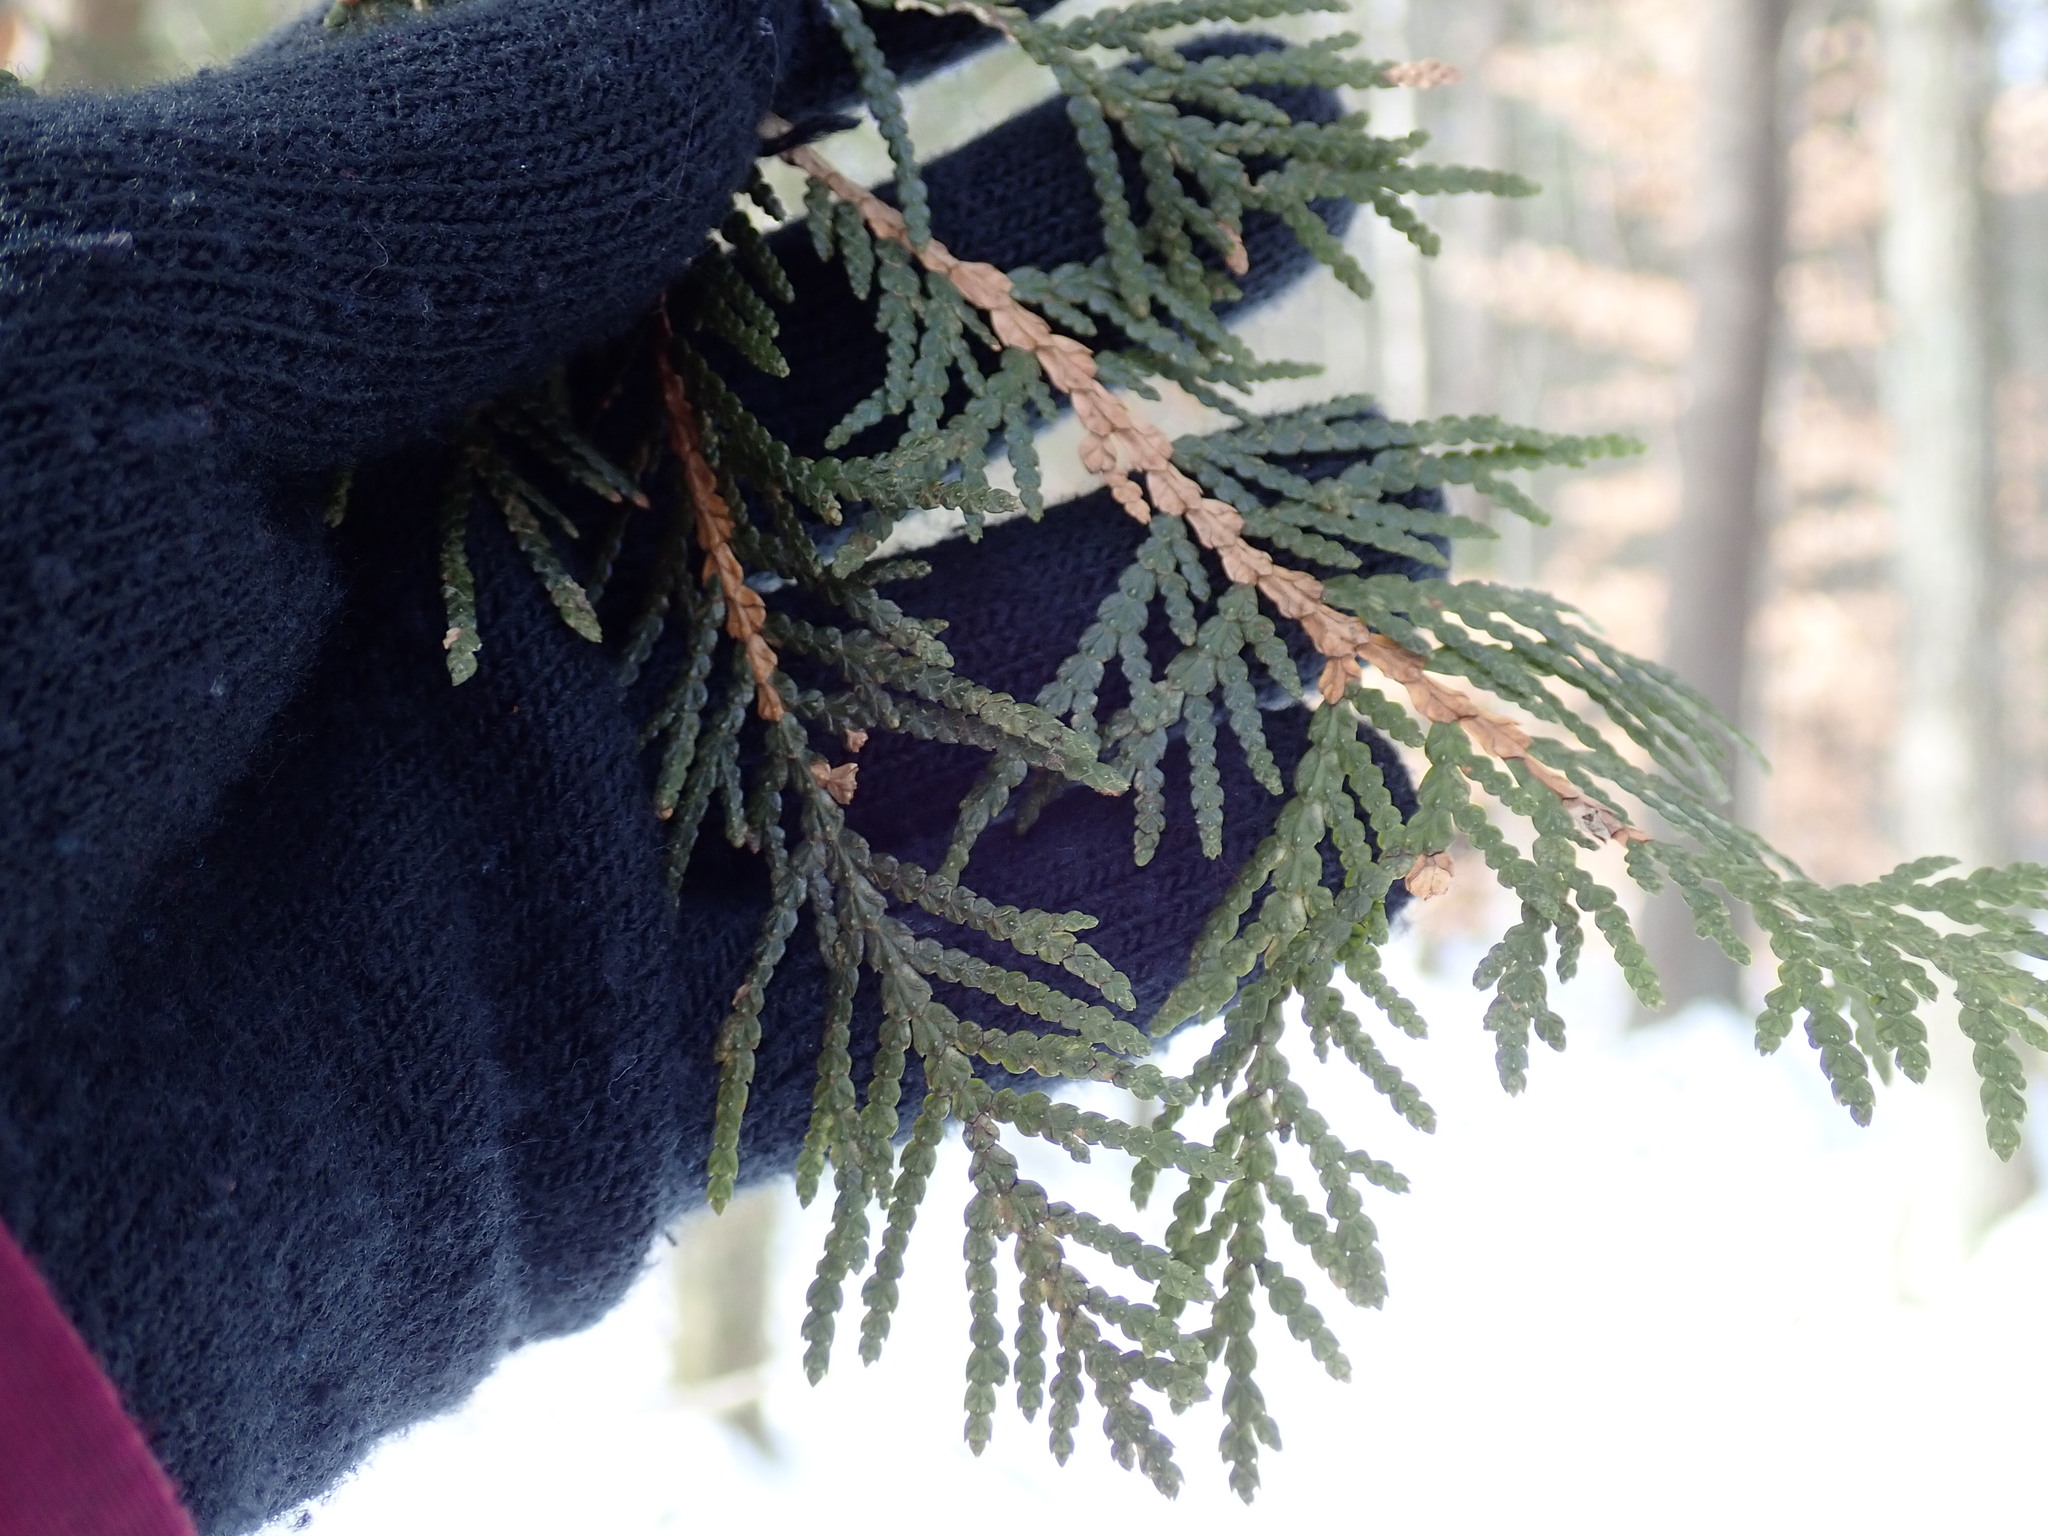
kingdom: Plantae
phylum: Tracheophyta
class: Pinopsida
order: Pinales
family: Cupressaceae
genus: Thuja
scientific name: Thuja occidentalis
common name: Northern white-cedar
